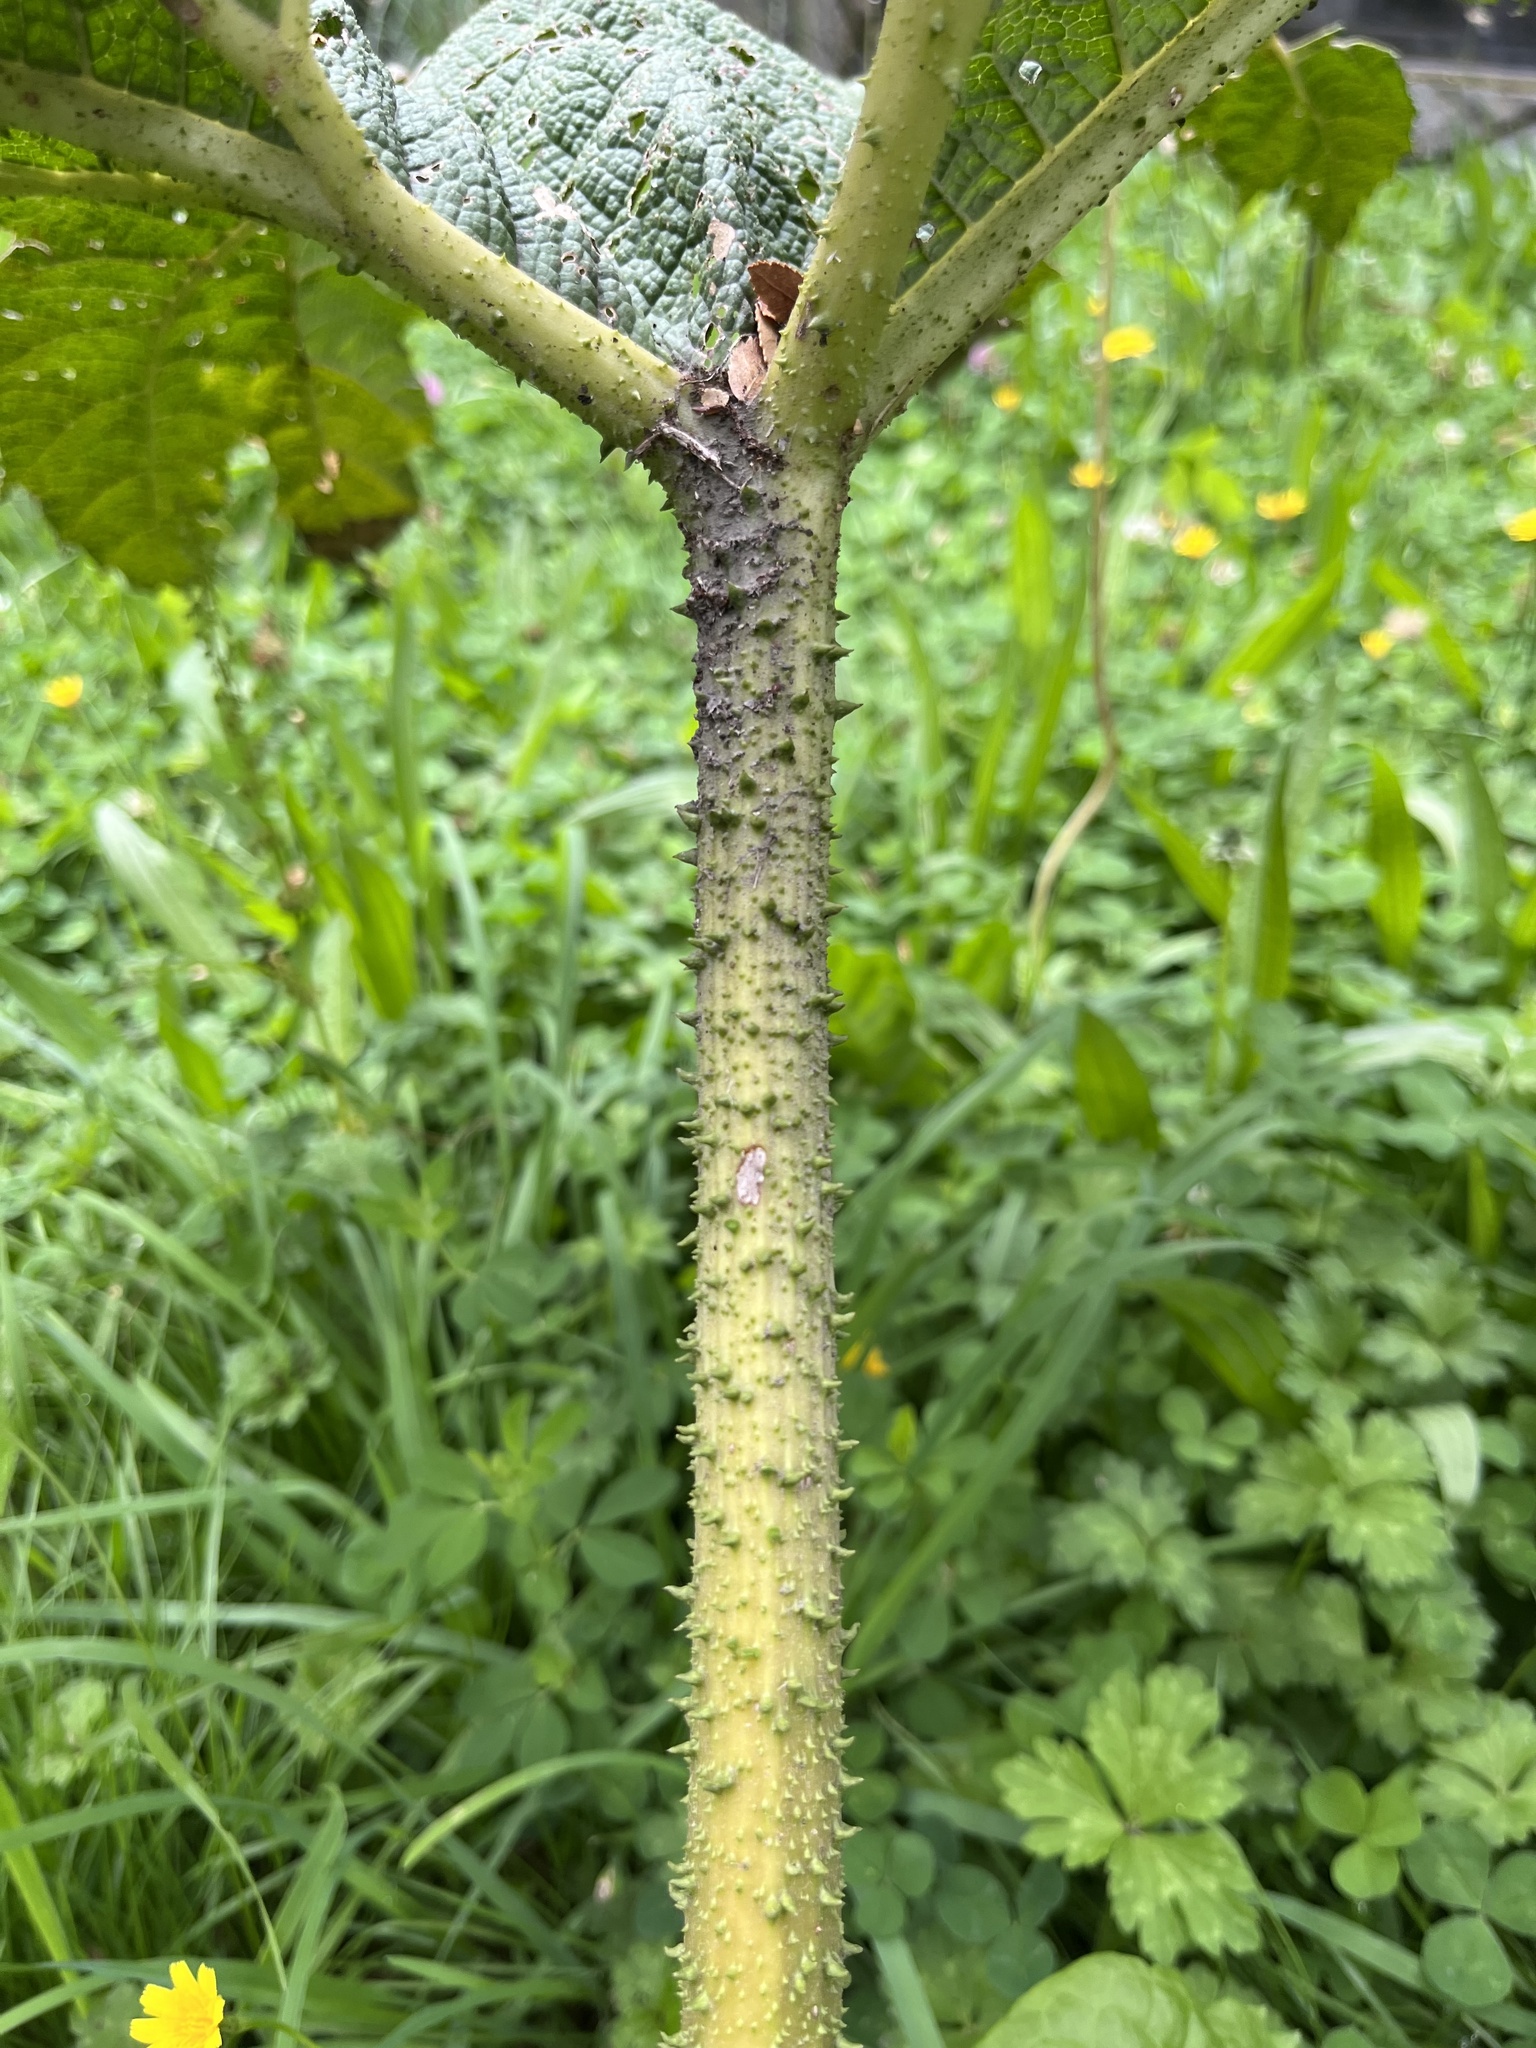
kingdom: Plantae
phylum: Tracheophyta
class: Magnoliopsida
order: Gunnerales
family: Gunneraceae
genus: Gunnera
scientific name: Gunnera tinctoria
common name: Giant-rhubarb
